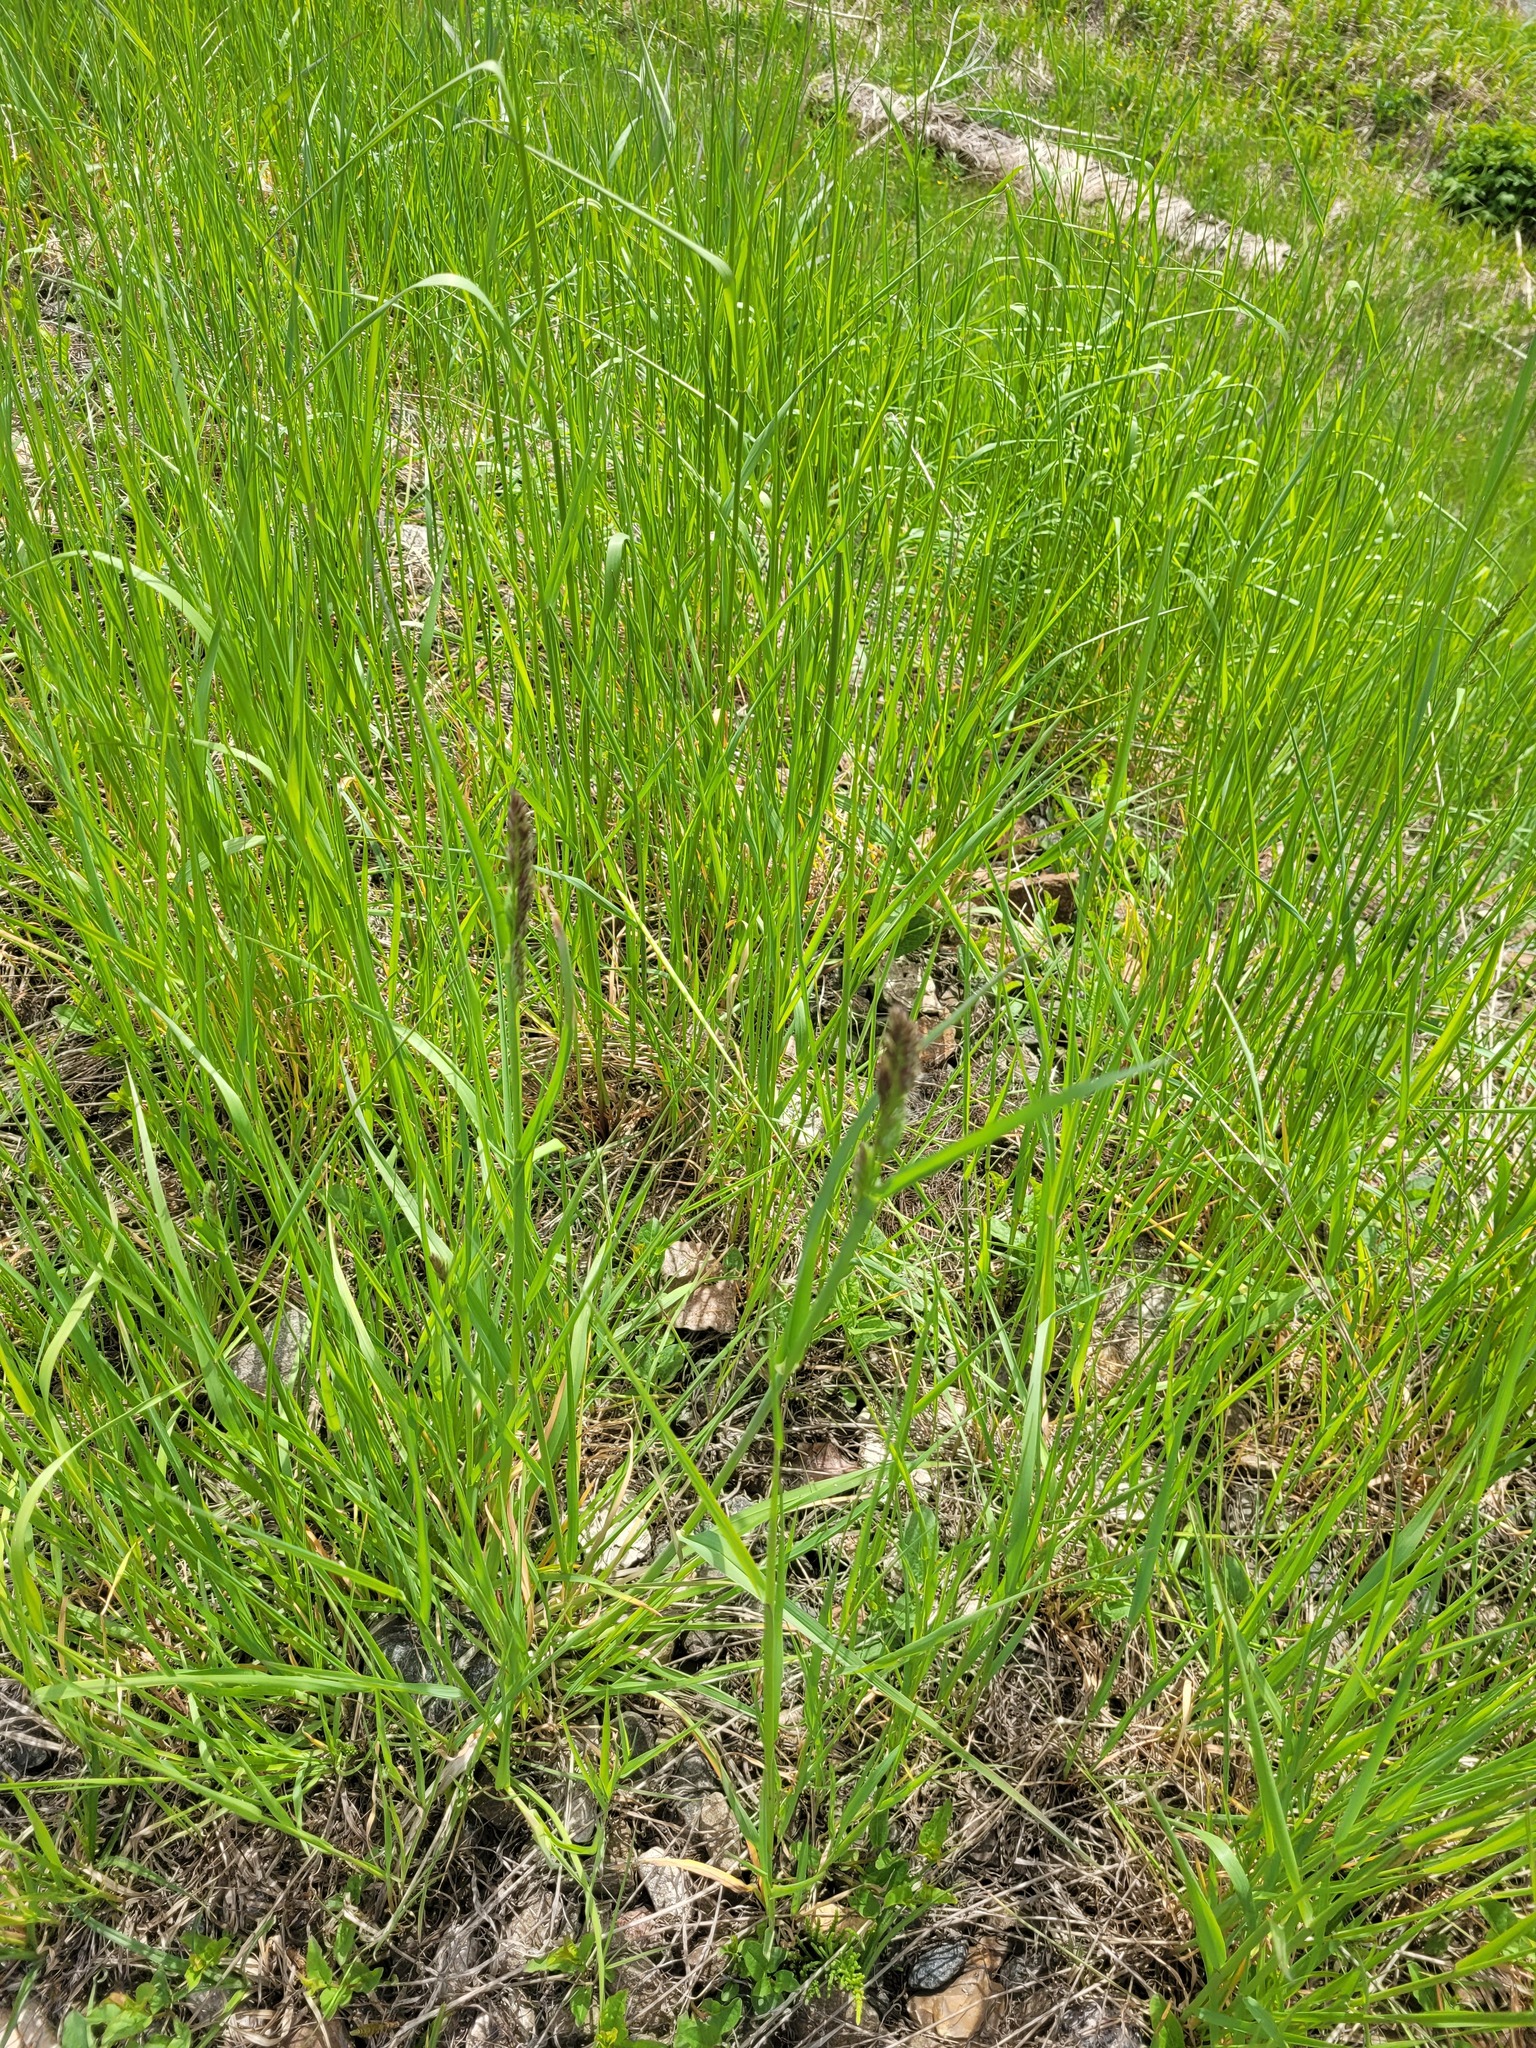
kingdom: Plantae
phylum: Tracheophyta
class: Liliopsida
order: Poales
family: Poaceae
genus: Dactylis
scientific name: Dactylis glomerata
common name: Orchardgrass
